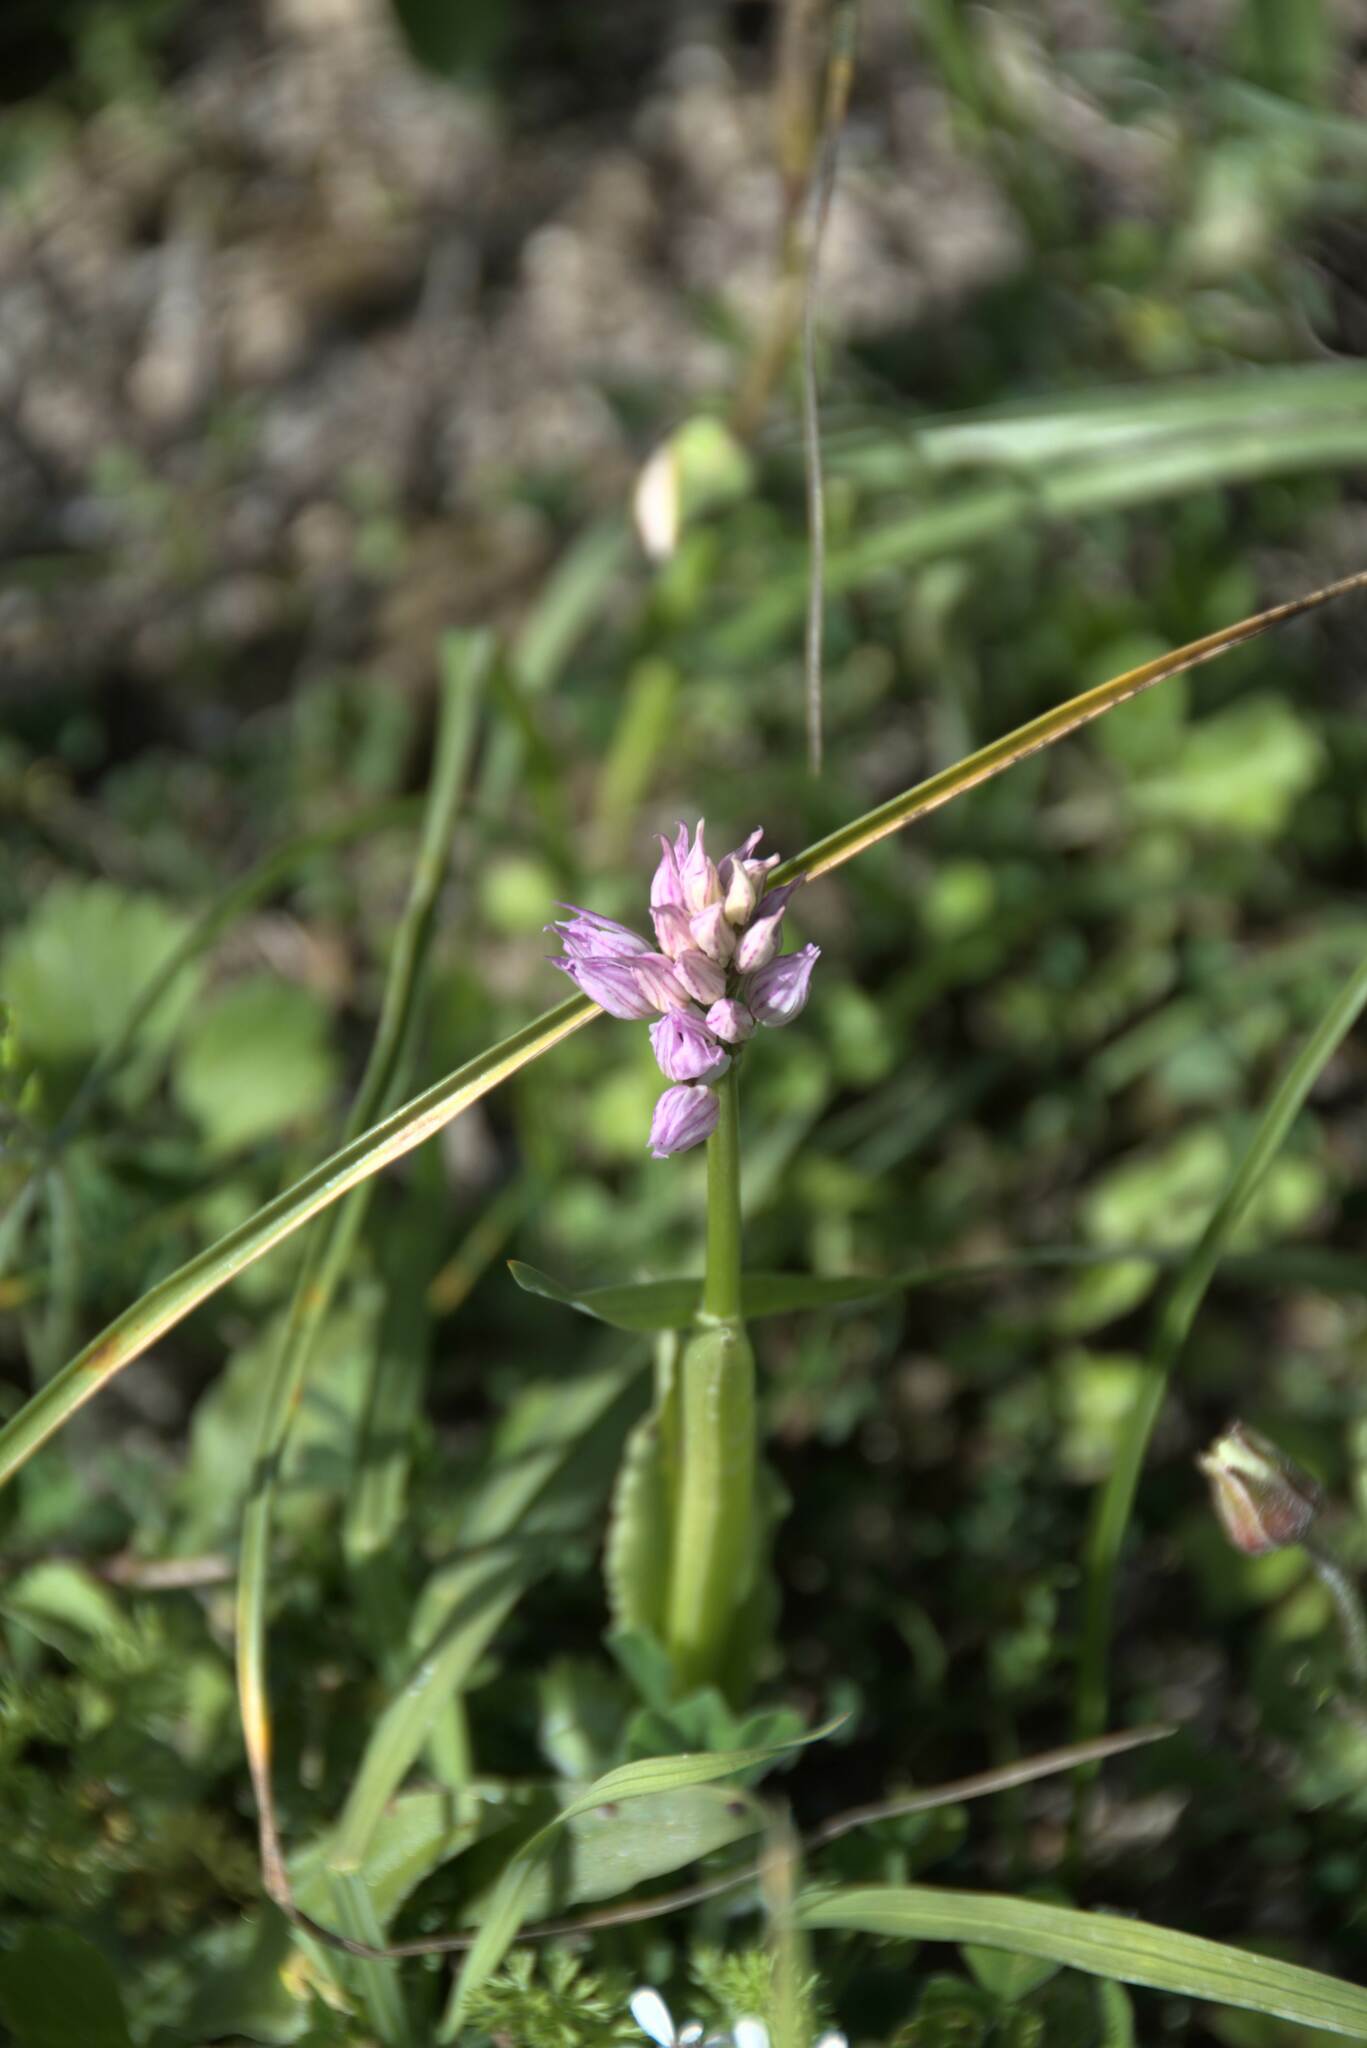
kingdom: Plantae
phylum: Tracheophyta
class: Liliopsida
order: Asparagales
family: Orchidaceae
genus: Orchis
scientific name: Orchis italica
